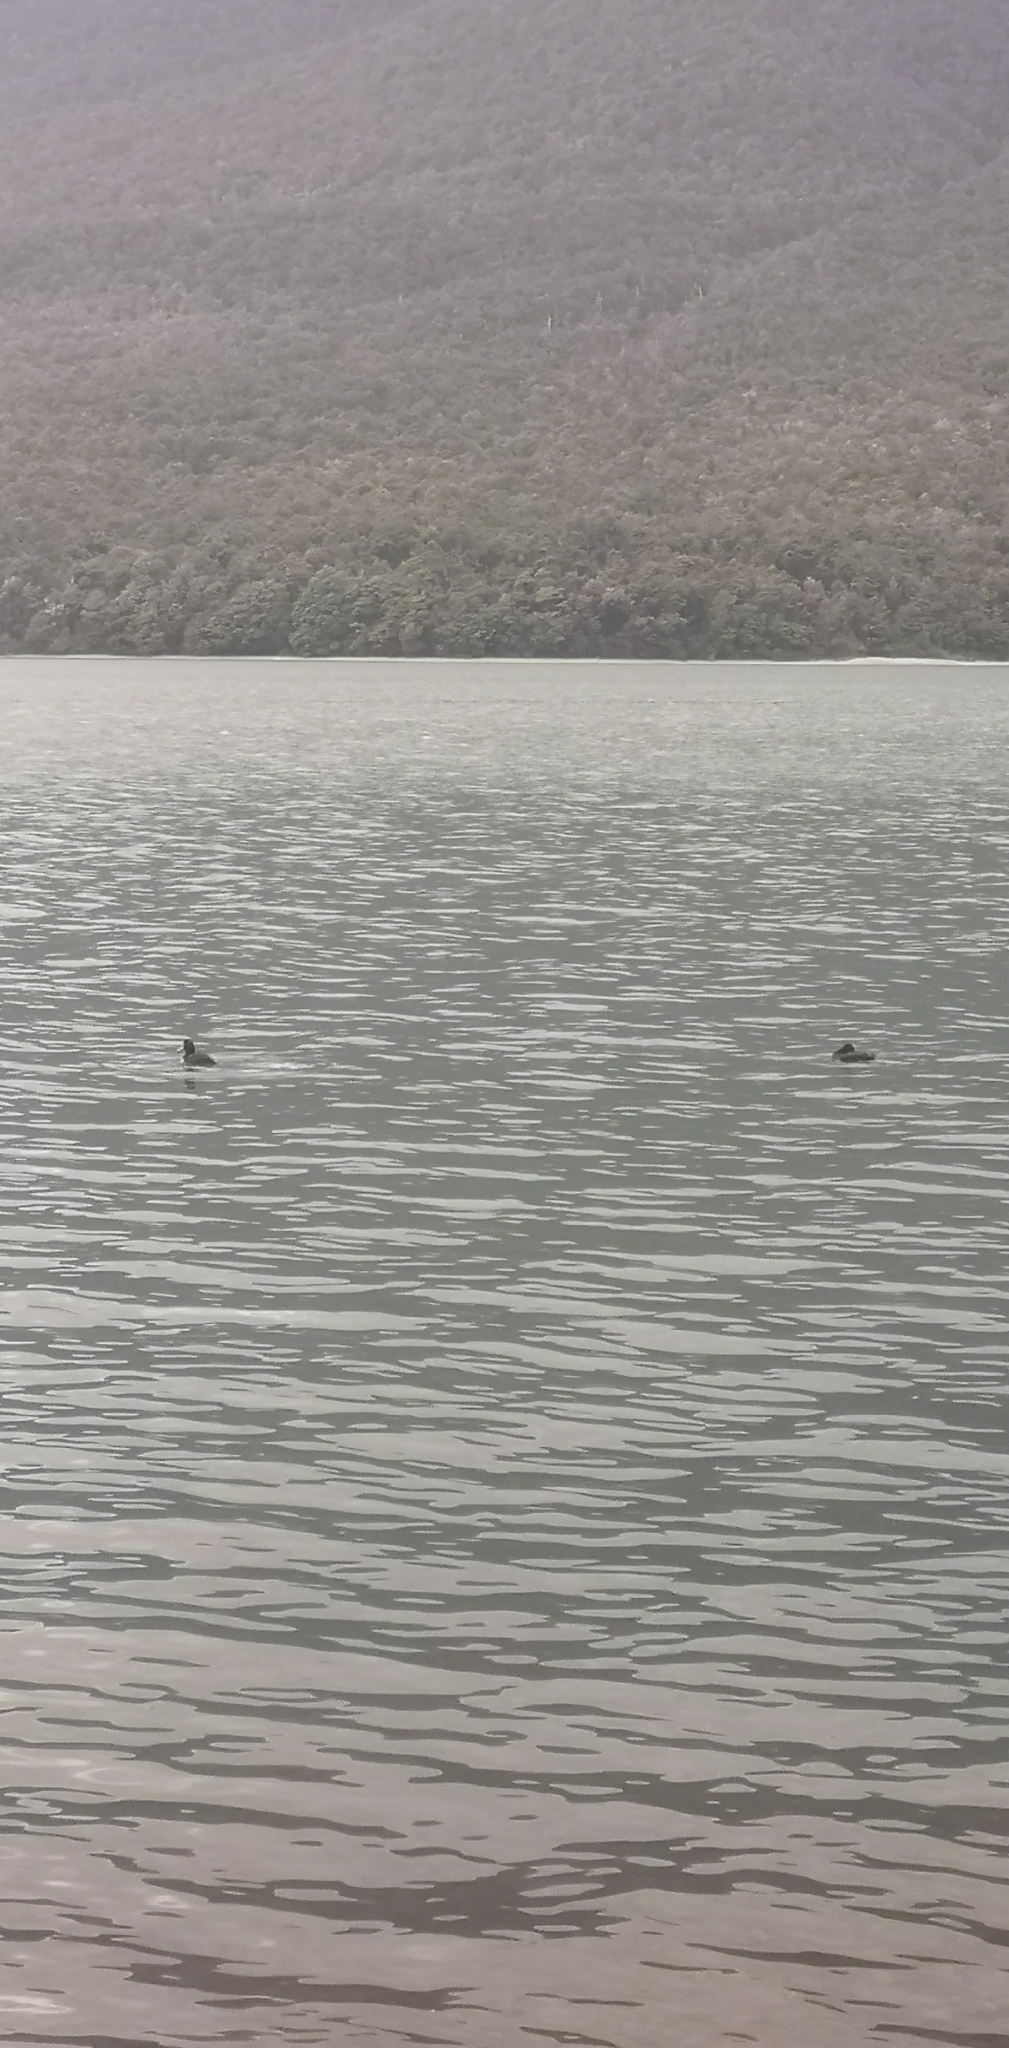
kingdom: Animalia
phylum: Chordata
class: Aves
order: Anseriformes
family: Anatidae
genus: Aythya
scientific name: Aythya novaeseelandiae
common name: New zealand scaup
